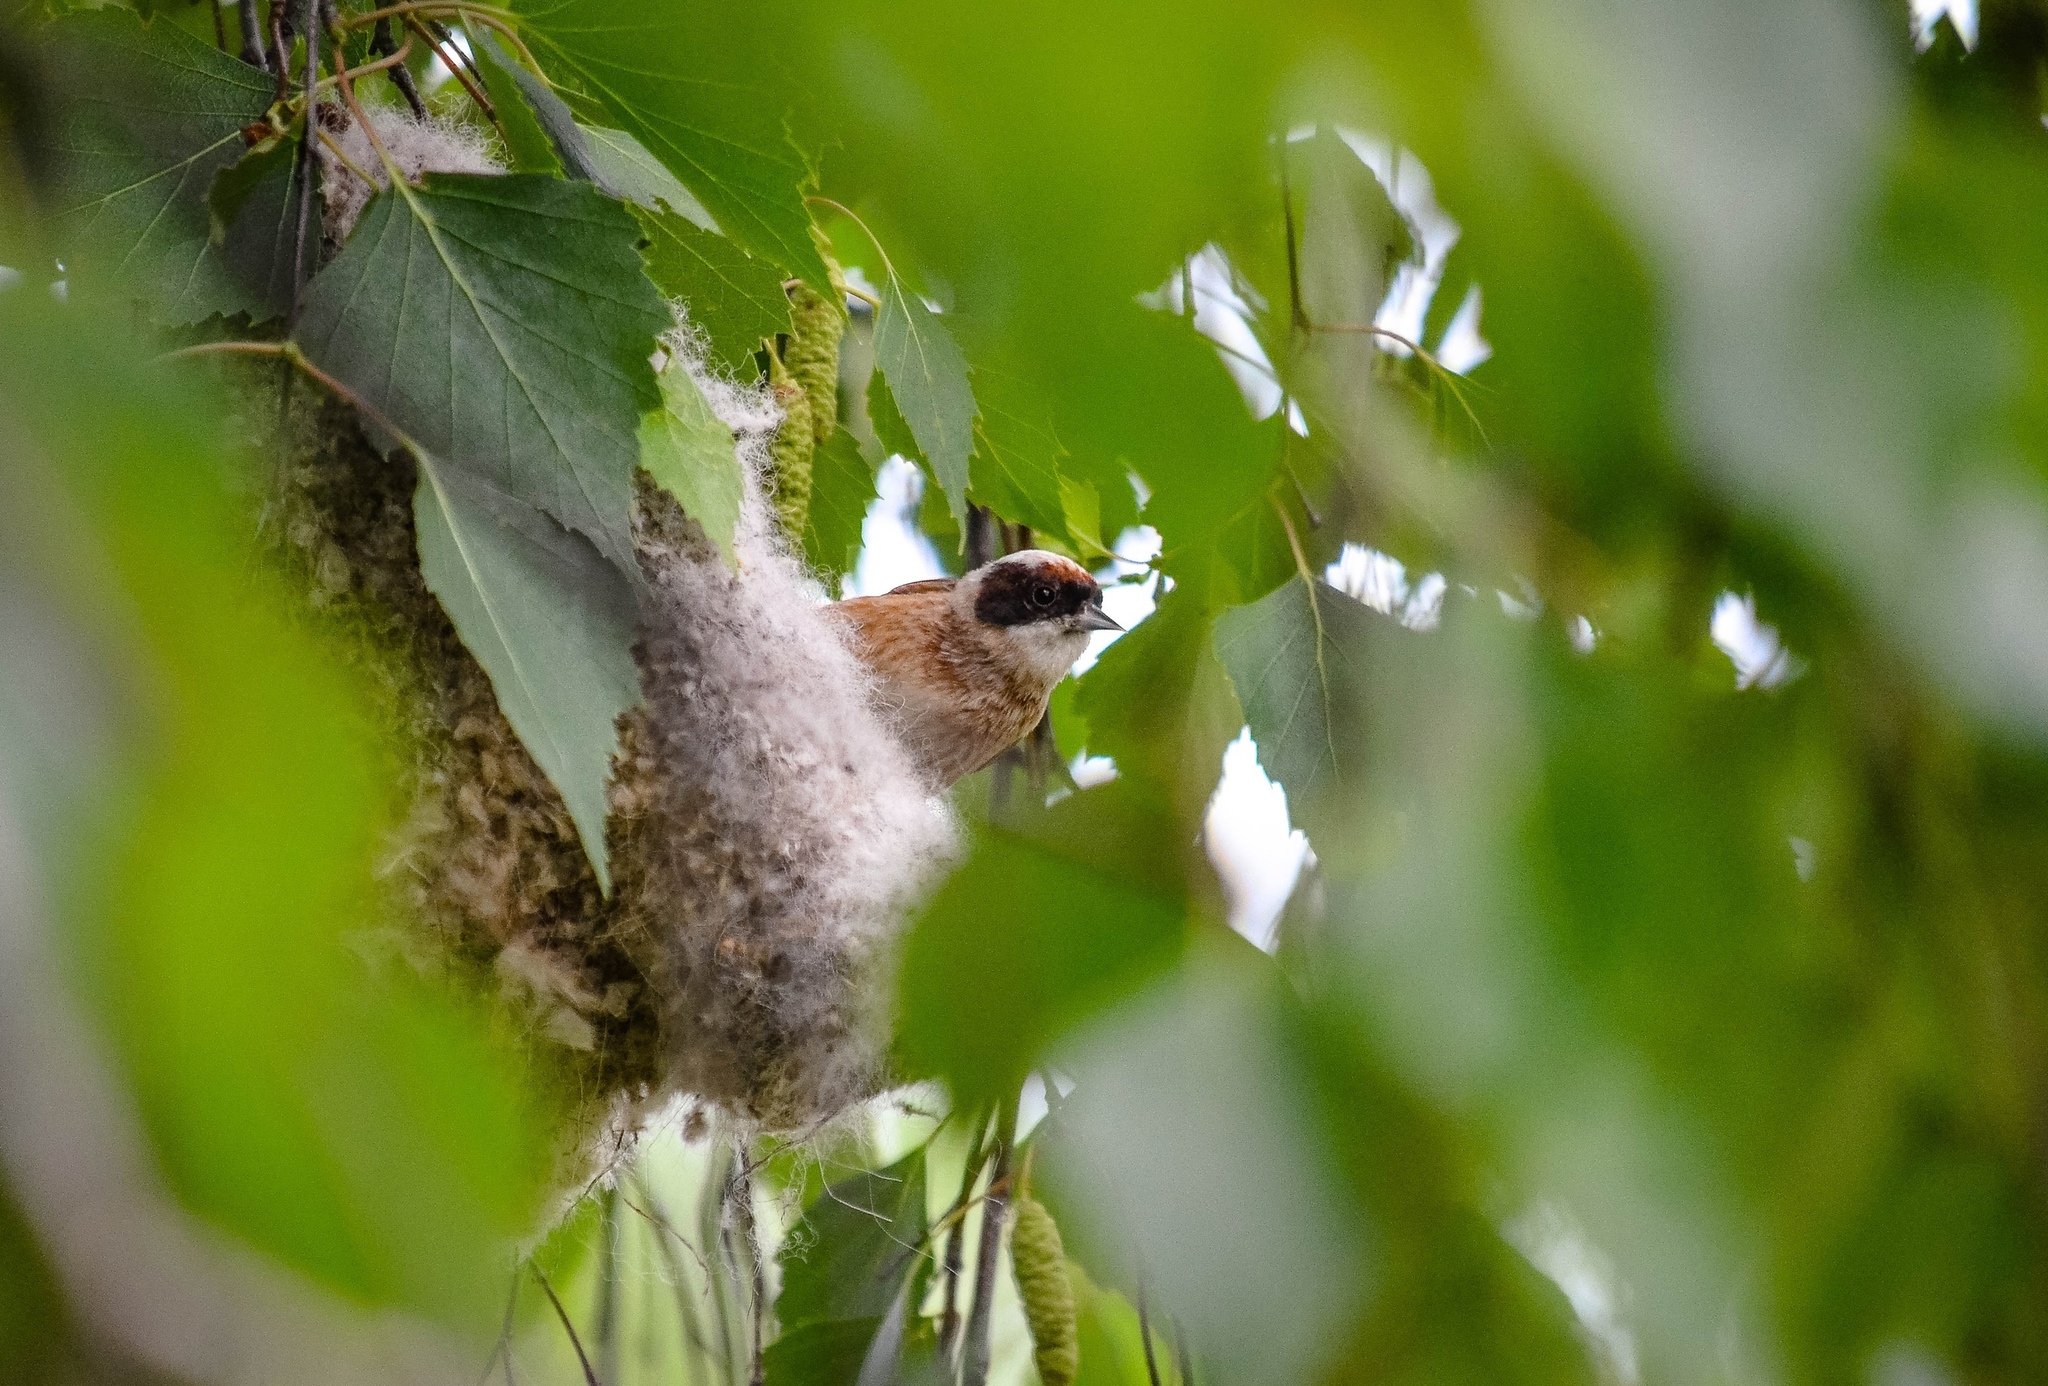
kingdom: Animalia
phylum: Chordata
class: Aves
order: Passeriformes
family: Remizidae
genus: Remiz
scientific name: Remiz pendulinus
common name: Eurasian penduline tit
